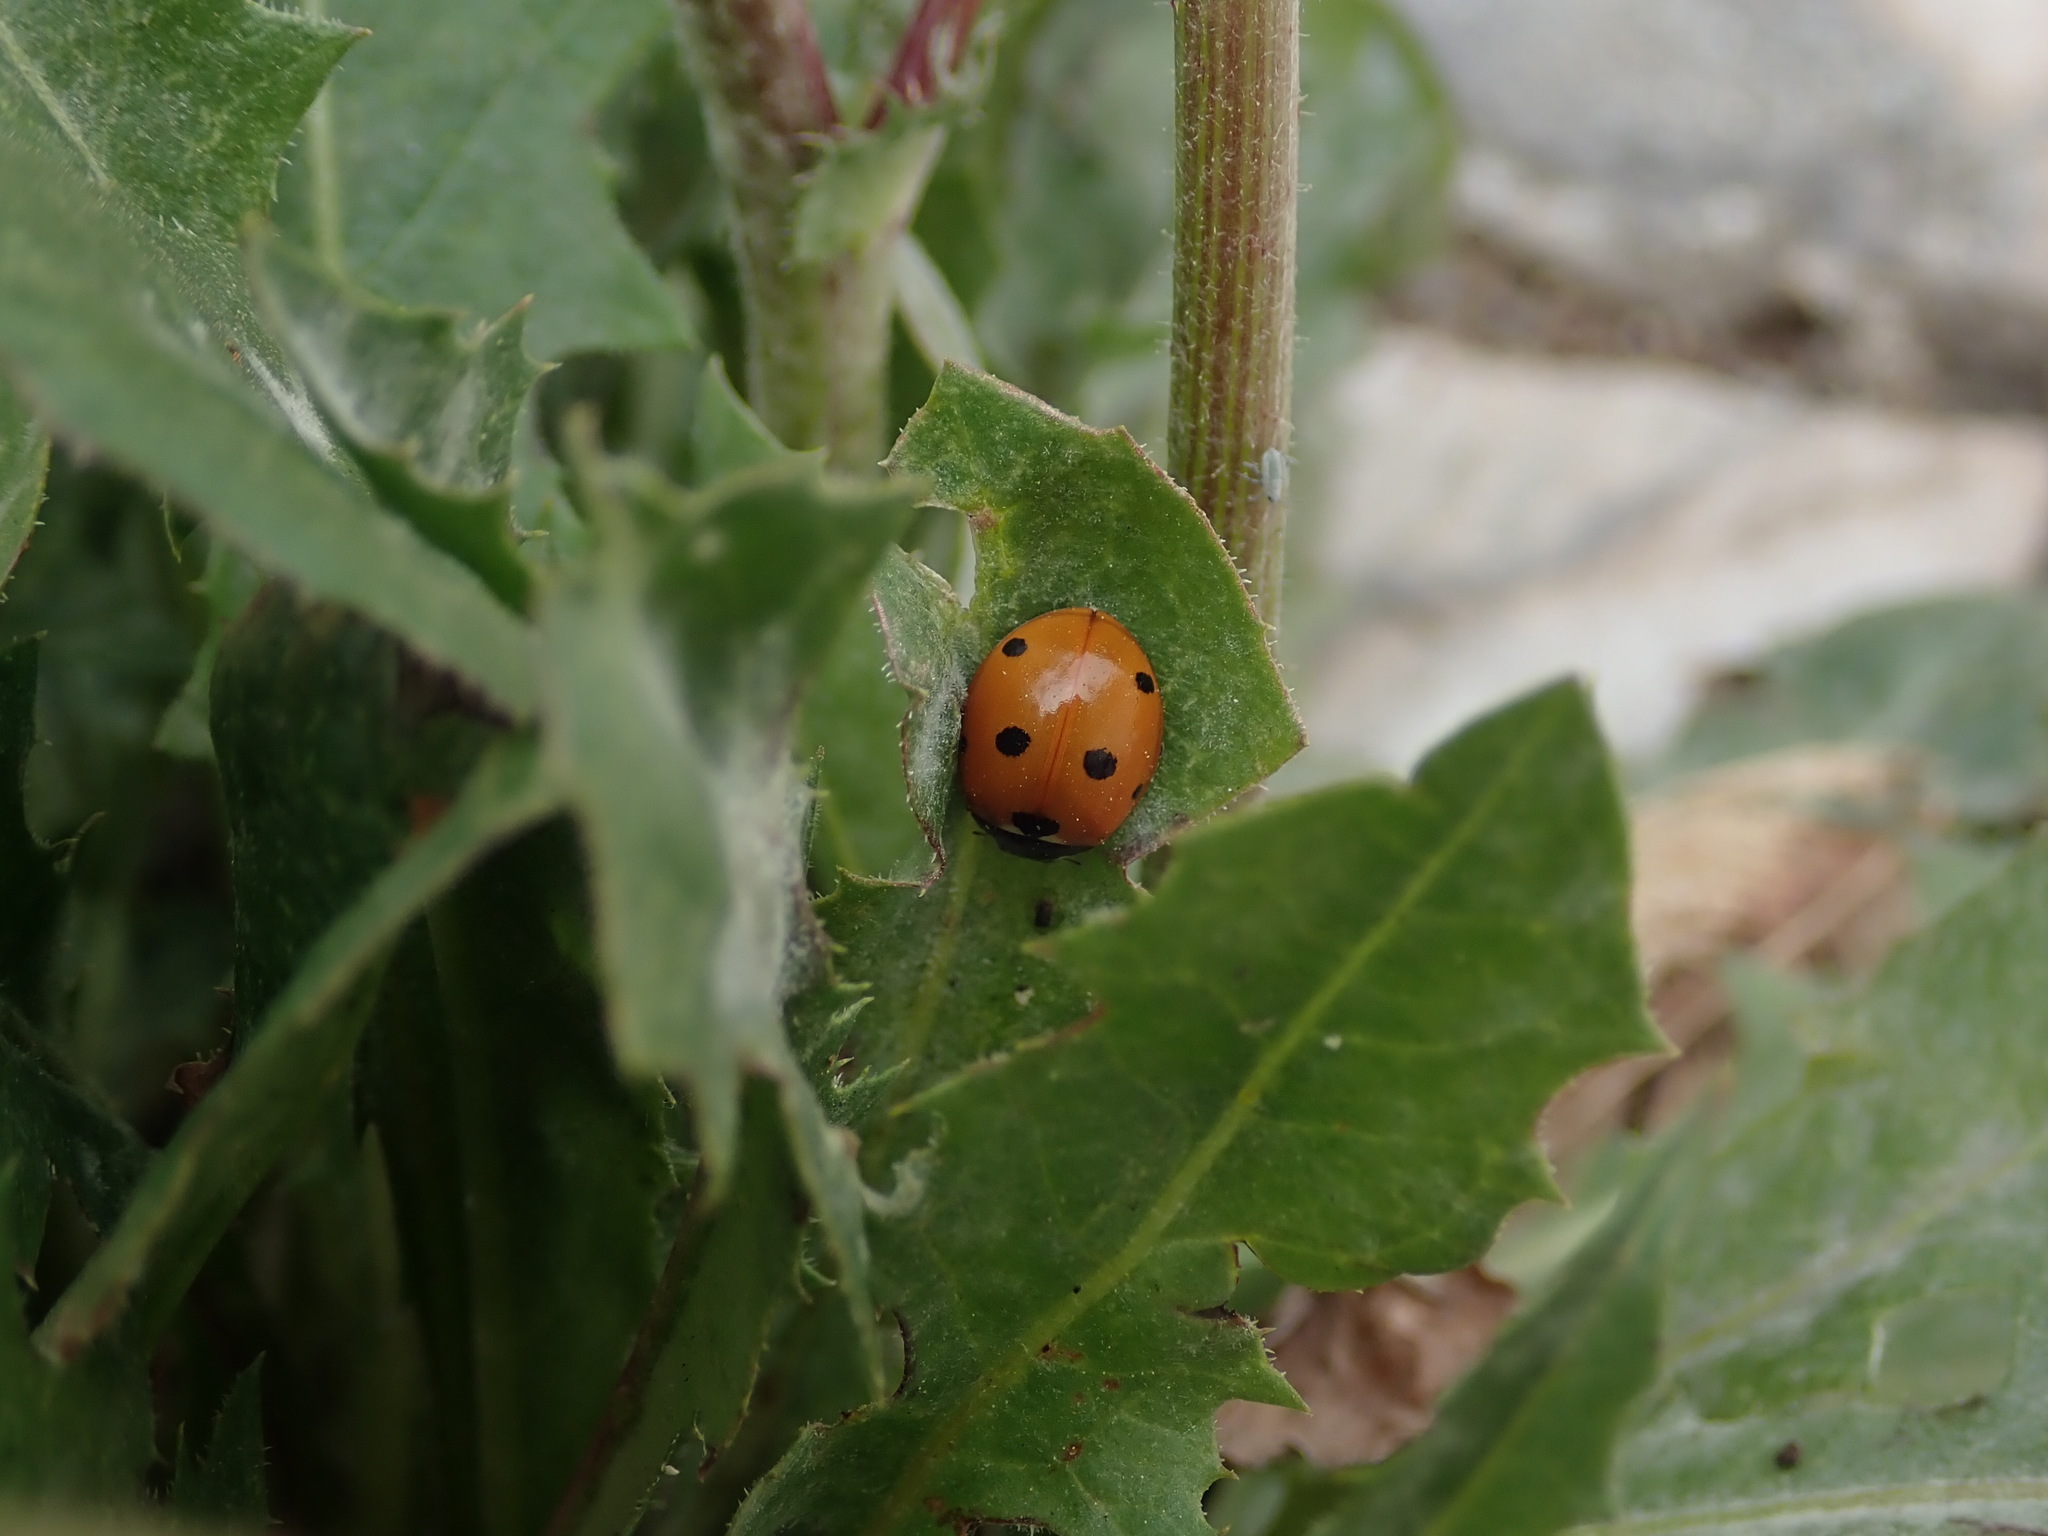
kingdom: Animalia
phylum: Arthropoda
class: Insecta
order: Coleoptera
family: Coccinellidae
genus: Coccinella
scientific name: Coccinella septempunctata
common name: Sevenspotted lady beetle
